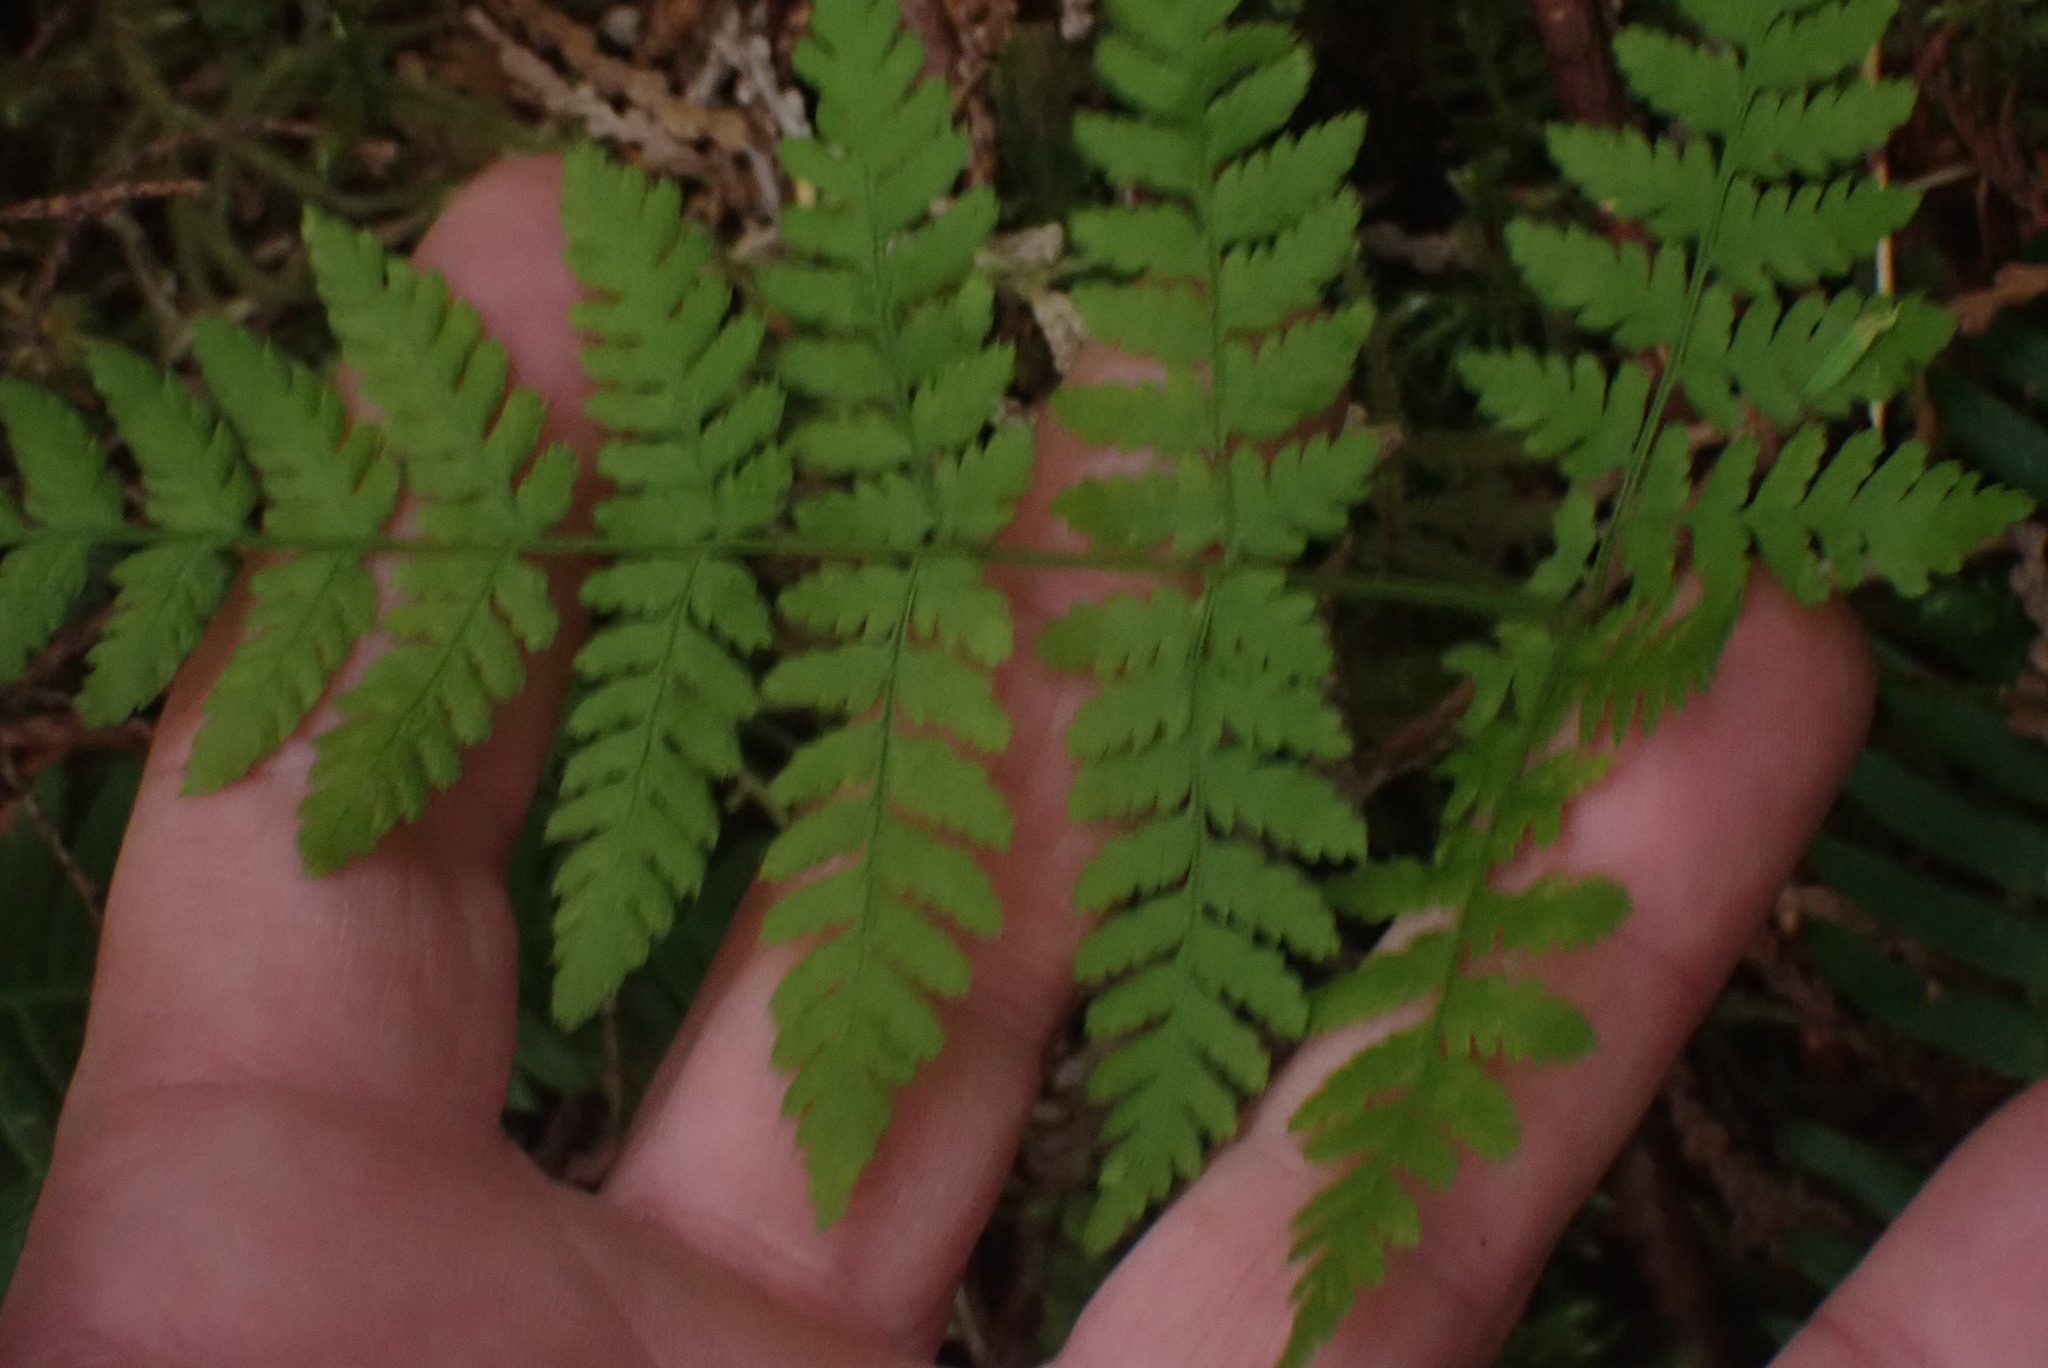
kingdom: Plantae
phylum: Tracheophyta
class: Polypodiopsida
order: Polypodiales
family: Dryopteridaceae
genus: Dryopteris
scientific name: Dryopteris expansa
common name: Northern buckler fern
